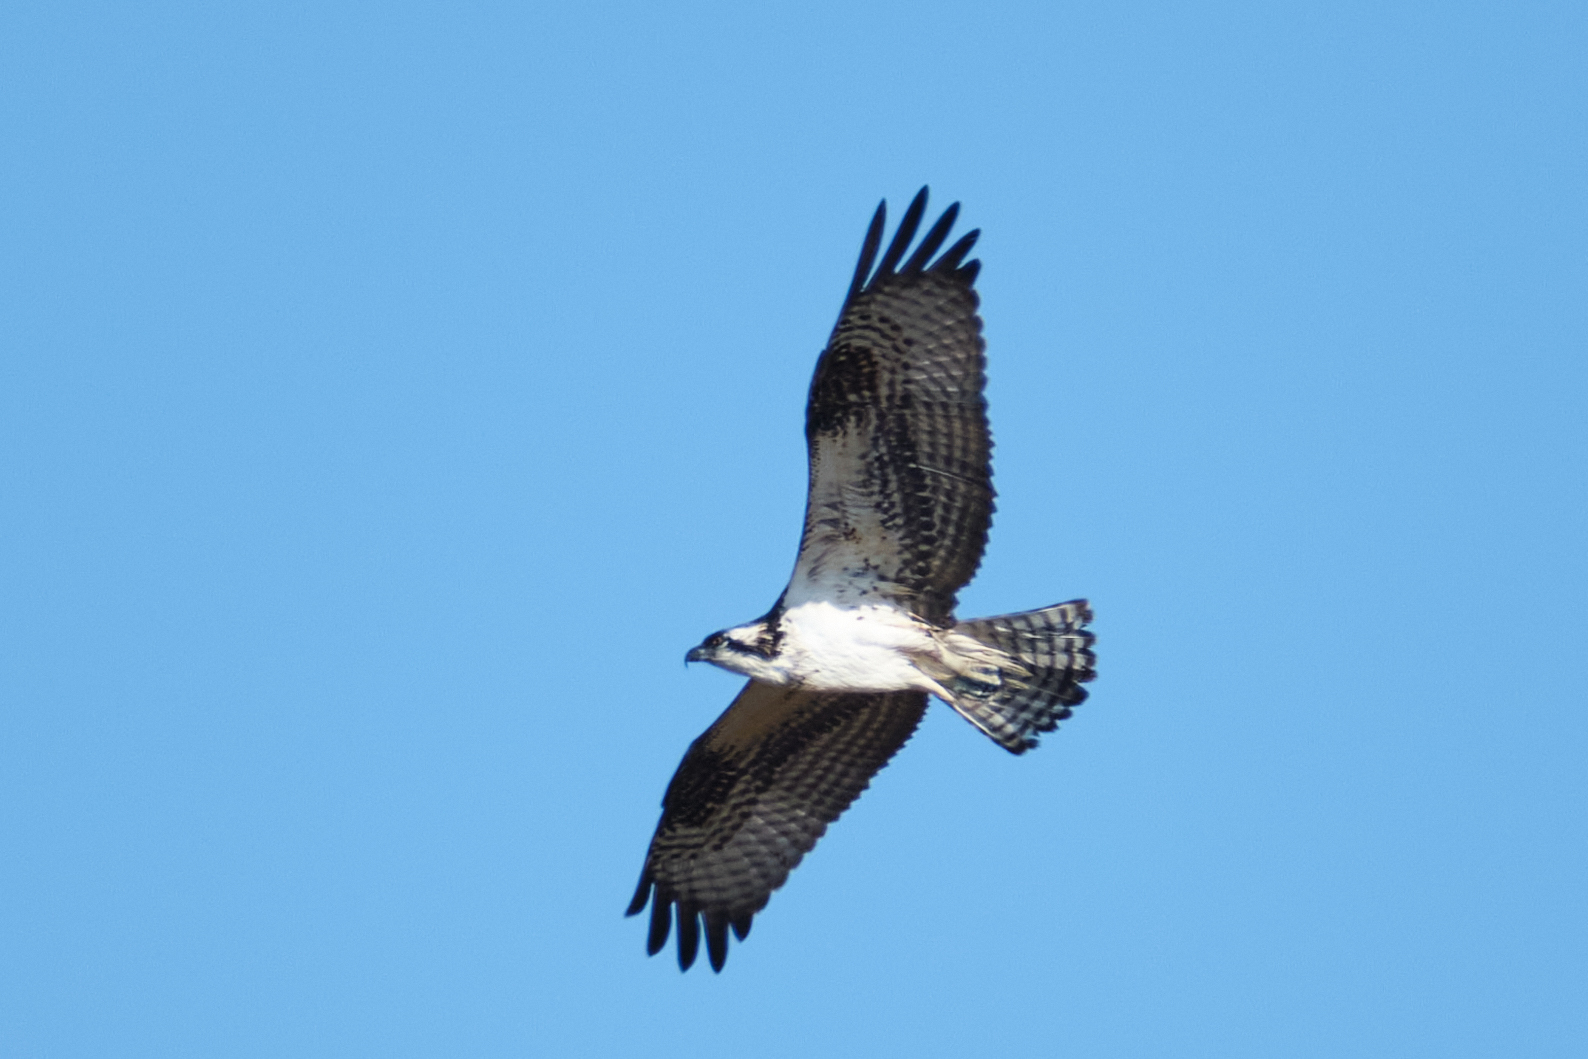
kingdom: Animalia
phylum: Chordata
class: Aves
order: Accipitriformes
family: Pandionidae
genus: Pandion
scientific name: Pandion haliaetus
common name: Osprey
